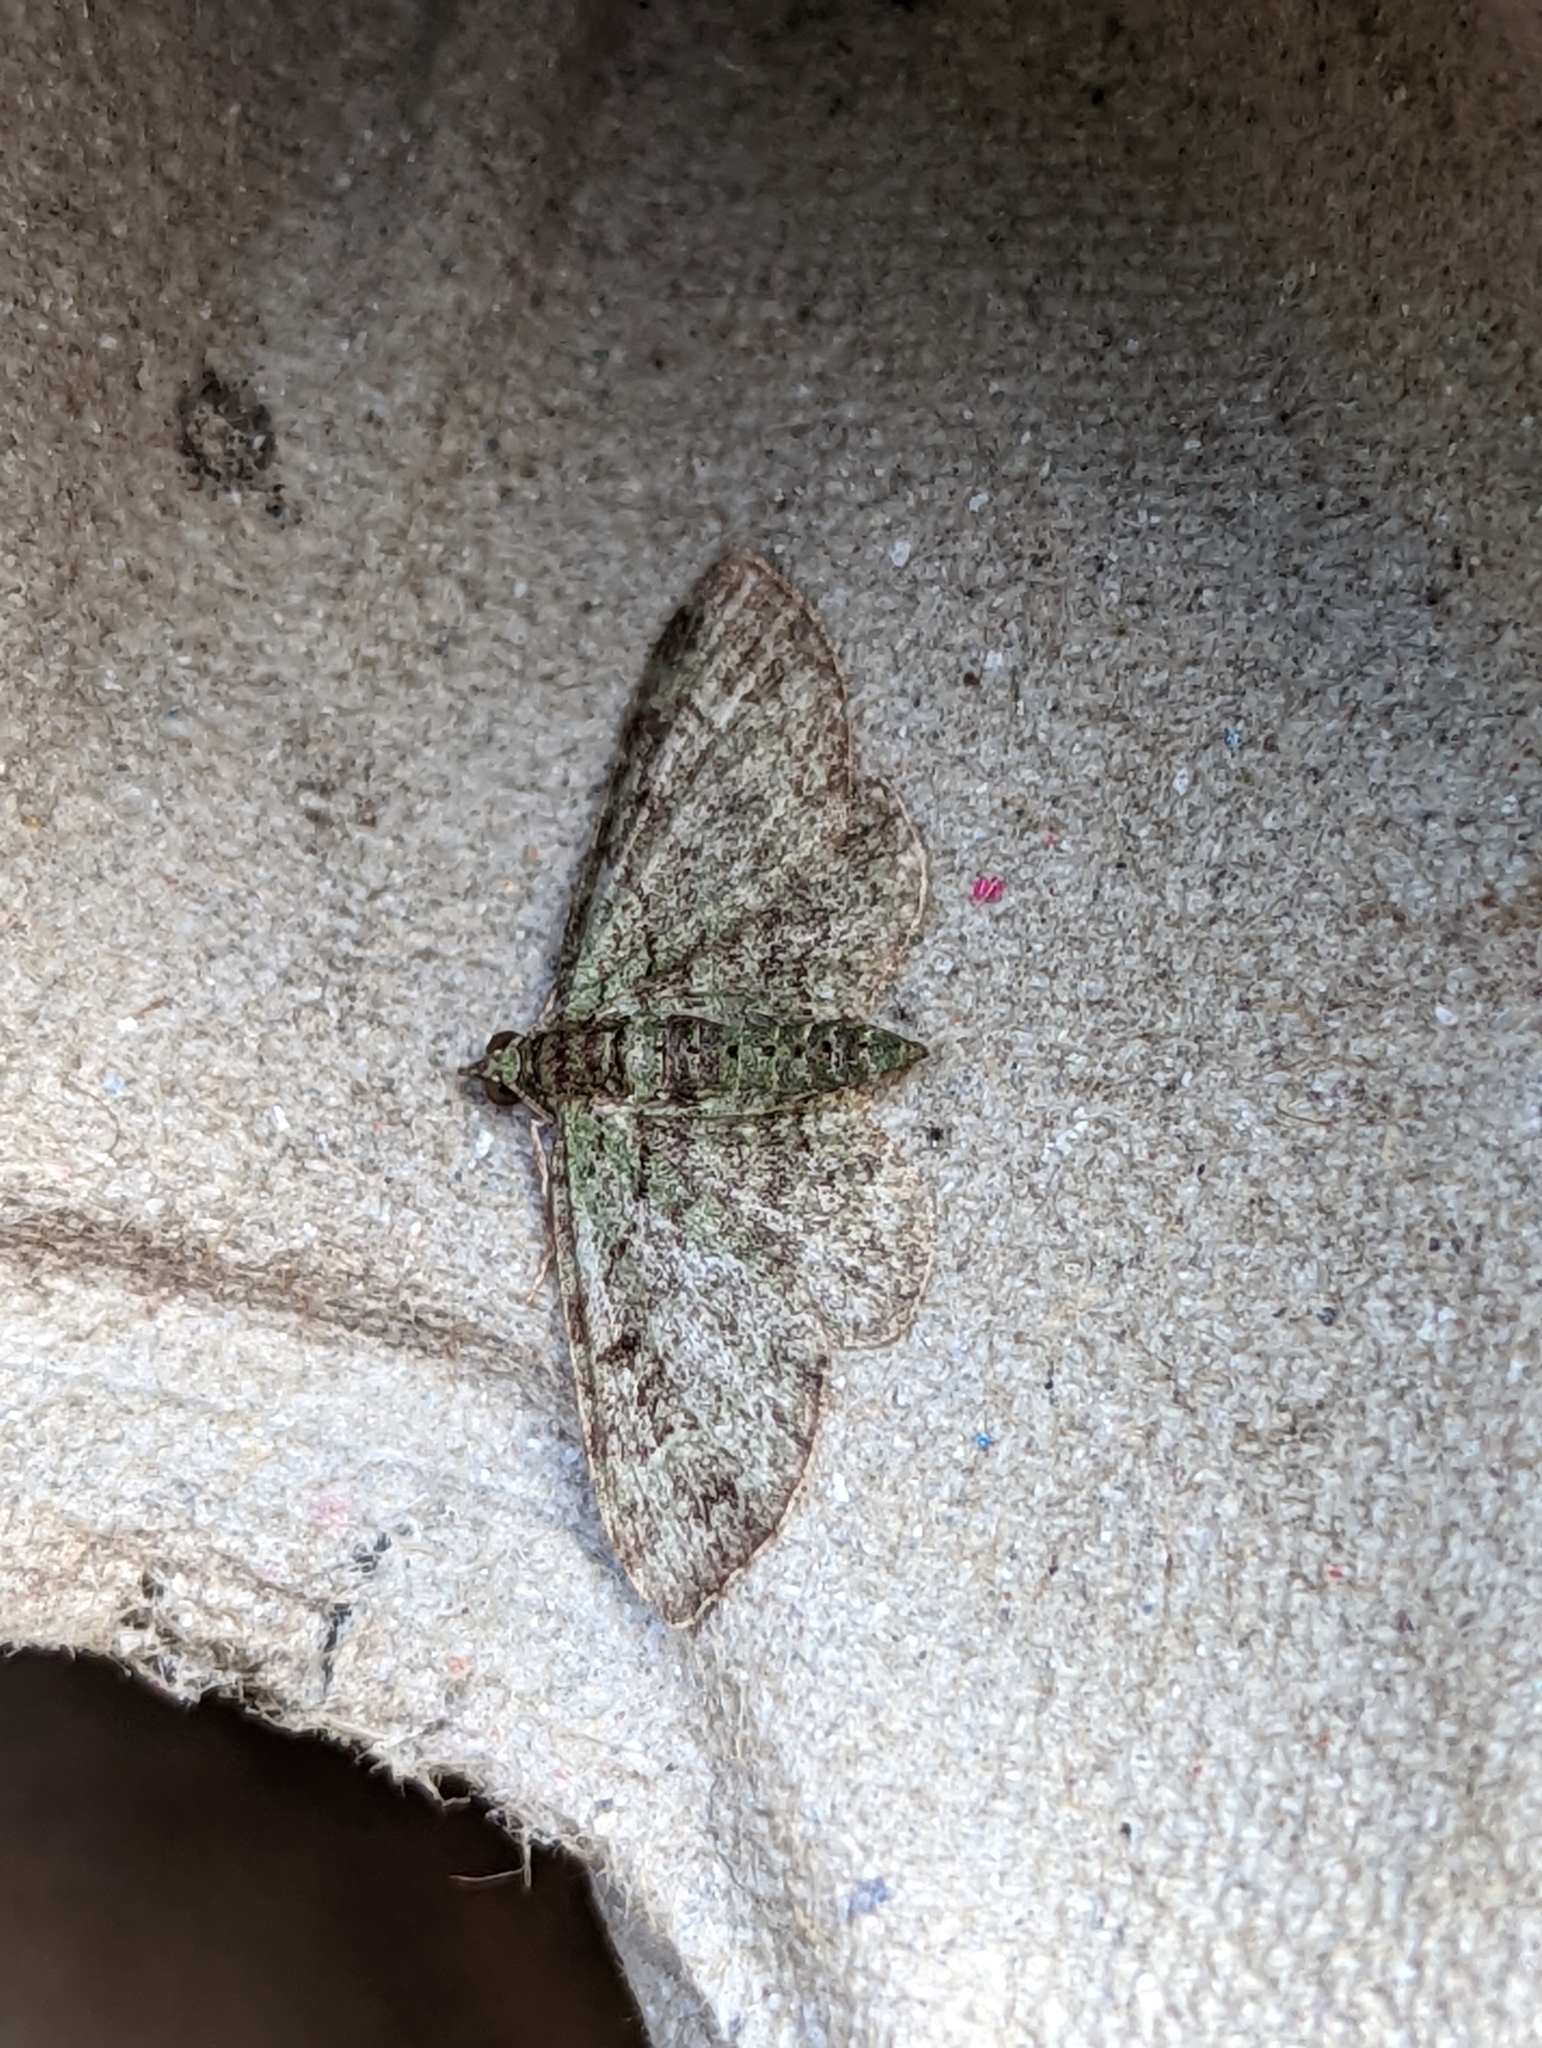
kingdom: Animalia
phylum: Arthropoda
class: Insecta
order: Lepidoptera
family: Geometridae
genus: Pasiphila
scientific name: Pasiphila rectangulata
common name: Green pug
